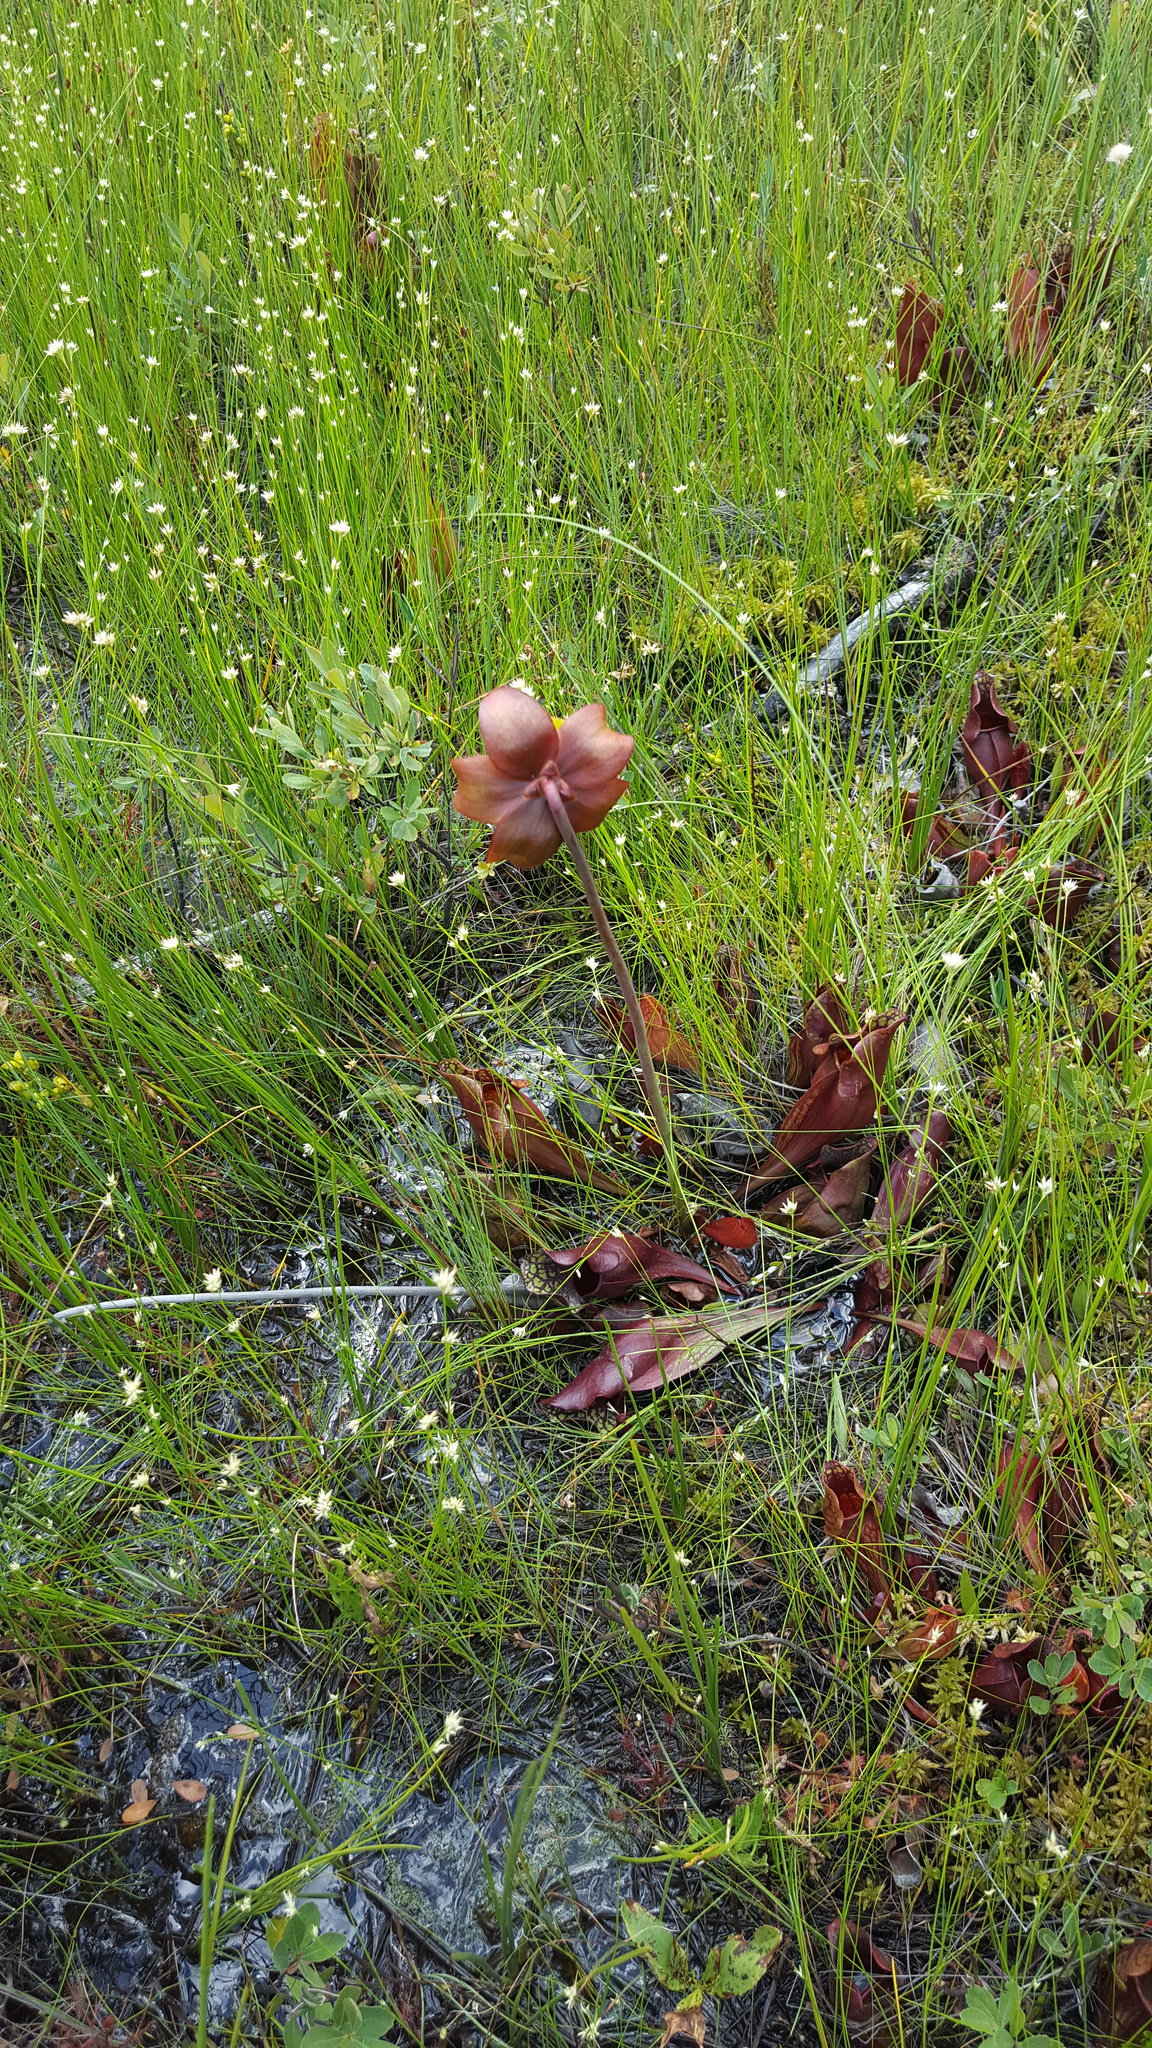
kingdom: Plantae
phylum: Tracheophyta
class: Magnoliopsida
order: Ericales
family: Sarraceniaceae
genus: Sarracenia
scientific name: Sarracenia purpurea
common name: Pitcherplant
